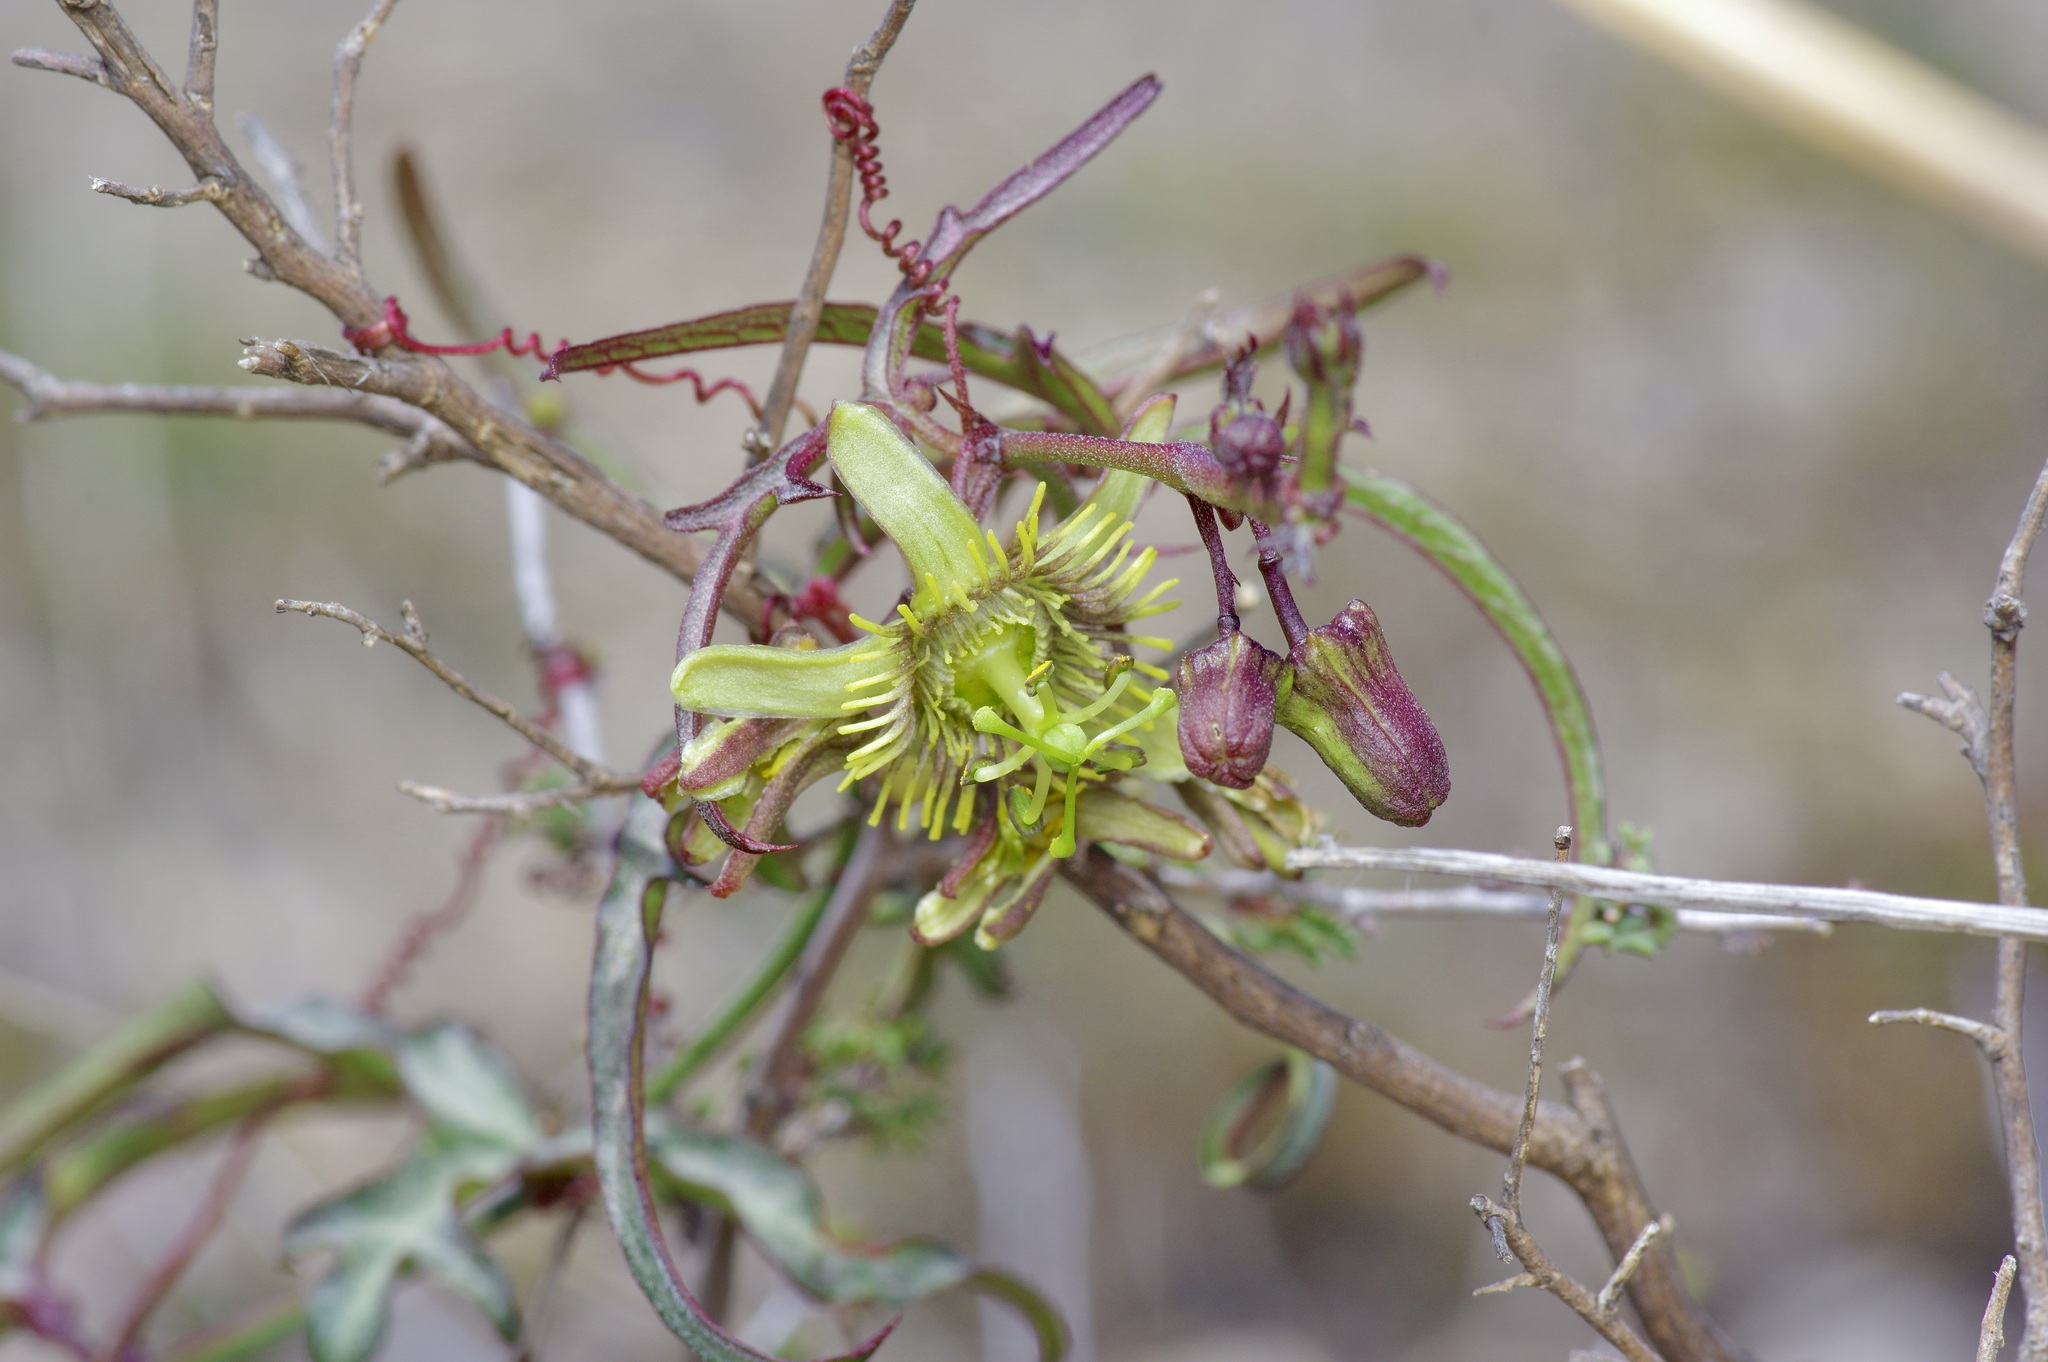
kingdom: Plantae
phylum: Tracheophyta
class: Magnoliopsida
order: Malpighiales
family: Passifloraceae
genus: Passiflora
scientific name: Passiflora tenuiloba
